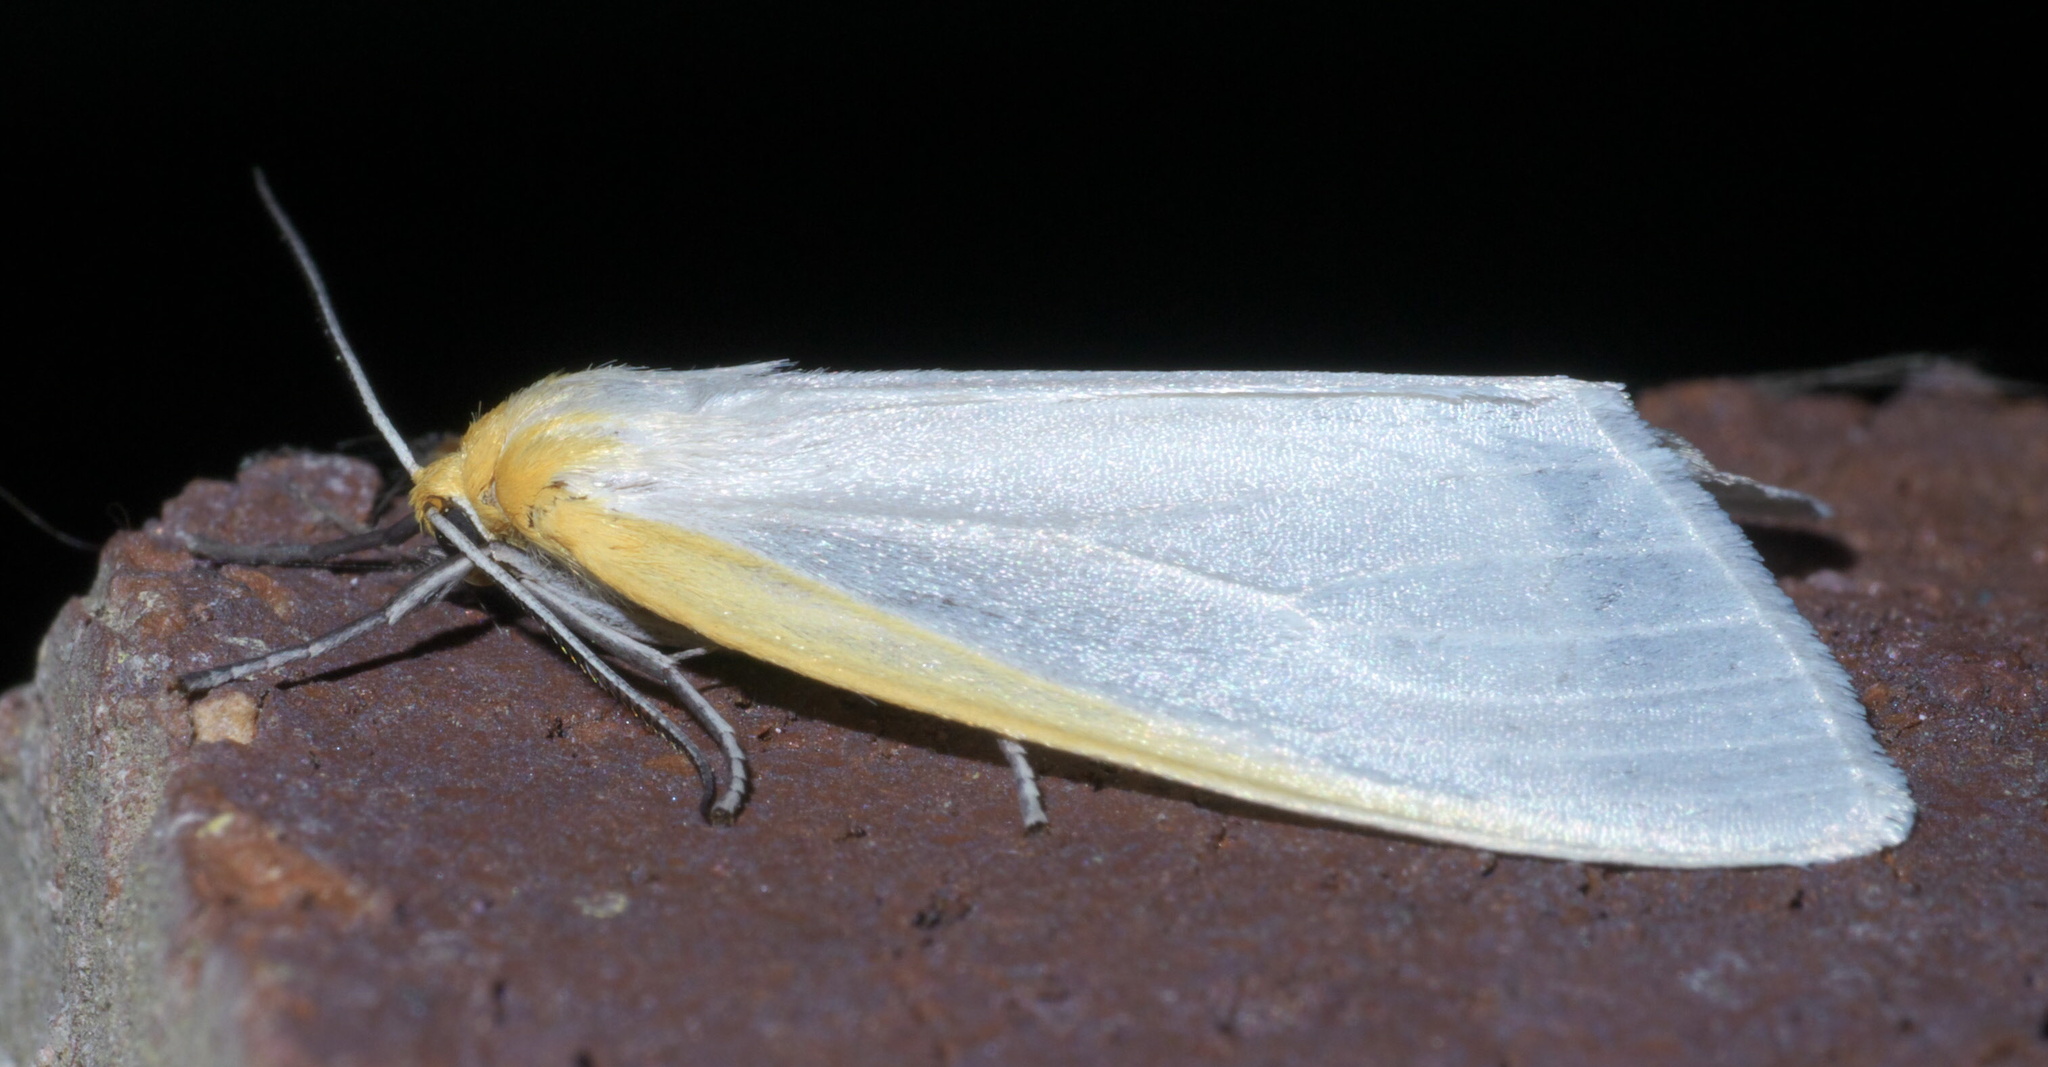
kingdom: Animalia
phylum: Arthropoda
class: Insecta
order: Lepidoptera
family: Erebidae
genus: Cycnia
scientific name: Cycnia tenera
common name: Delicate cycnia moth
